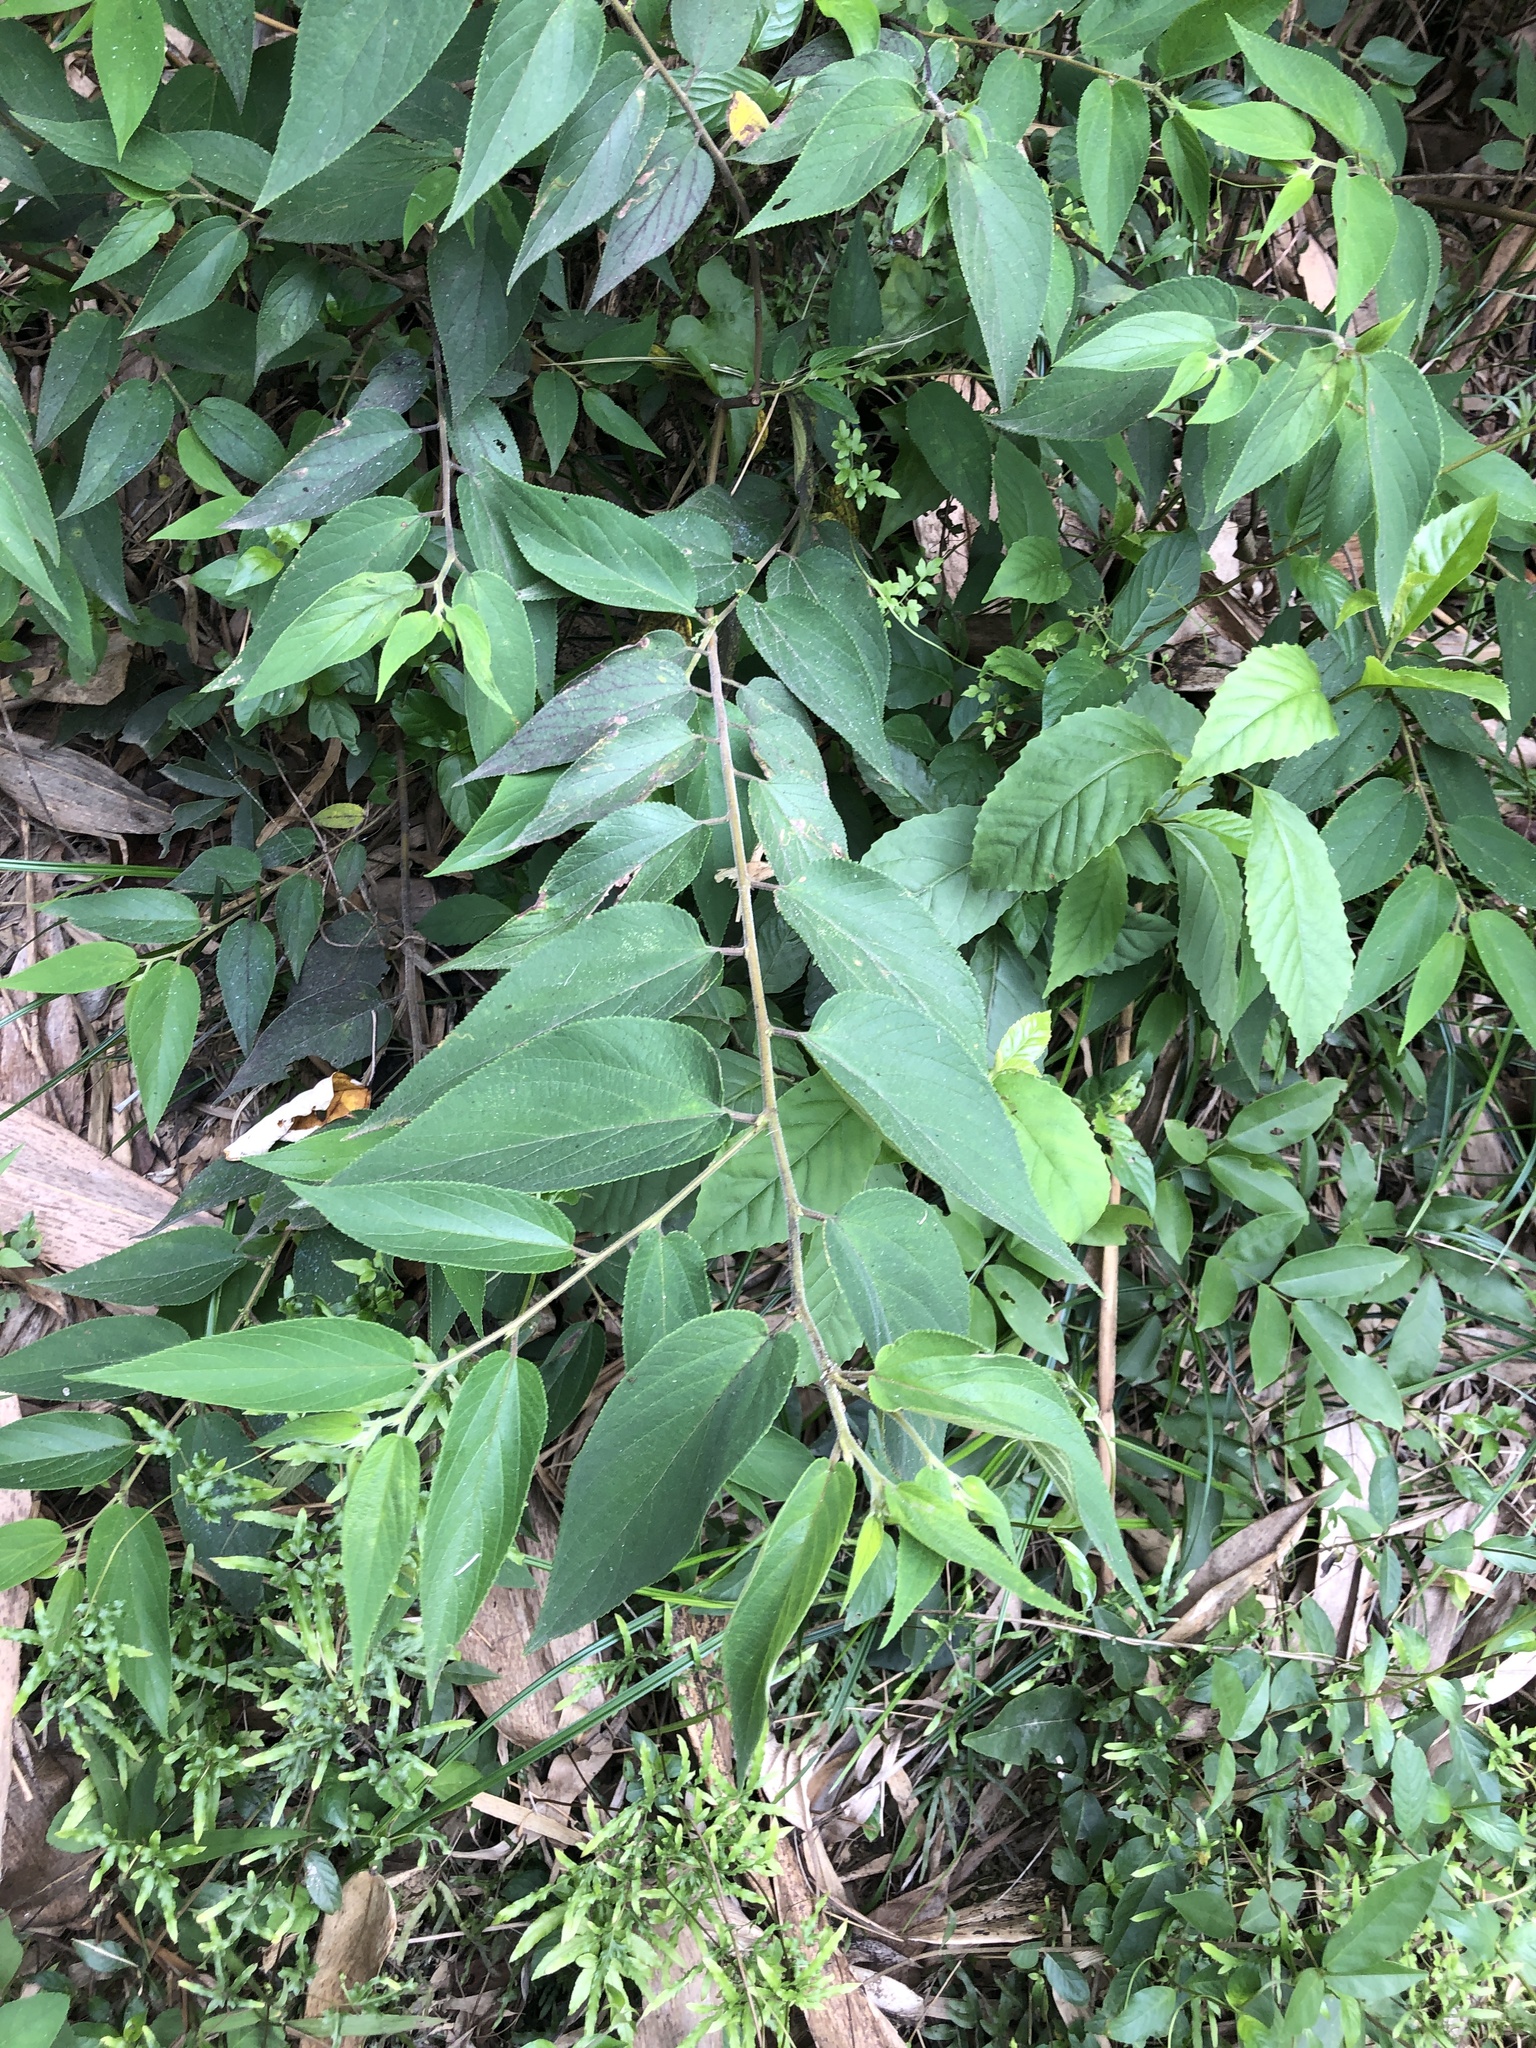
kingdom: Plantae
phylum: Tracheophyta
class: Magnoliopsida
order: Rosales
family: Cannabaceae
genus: Trema
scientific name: Trema orientale
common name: Indian charcoal tree
